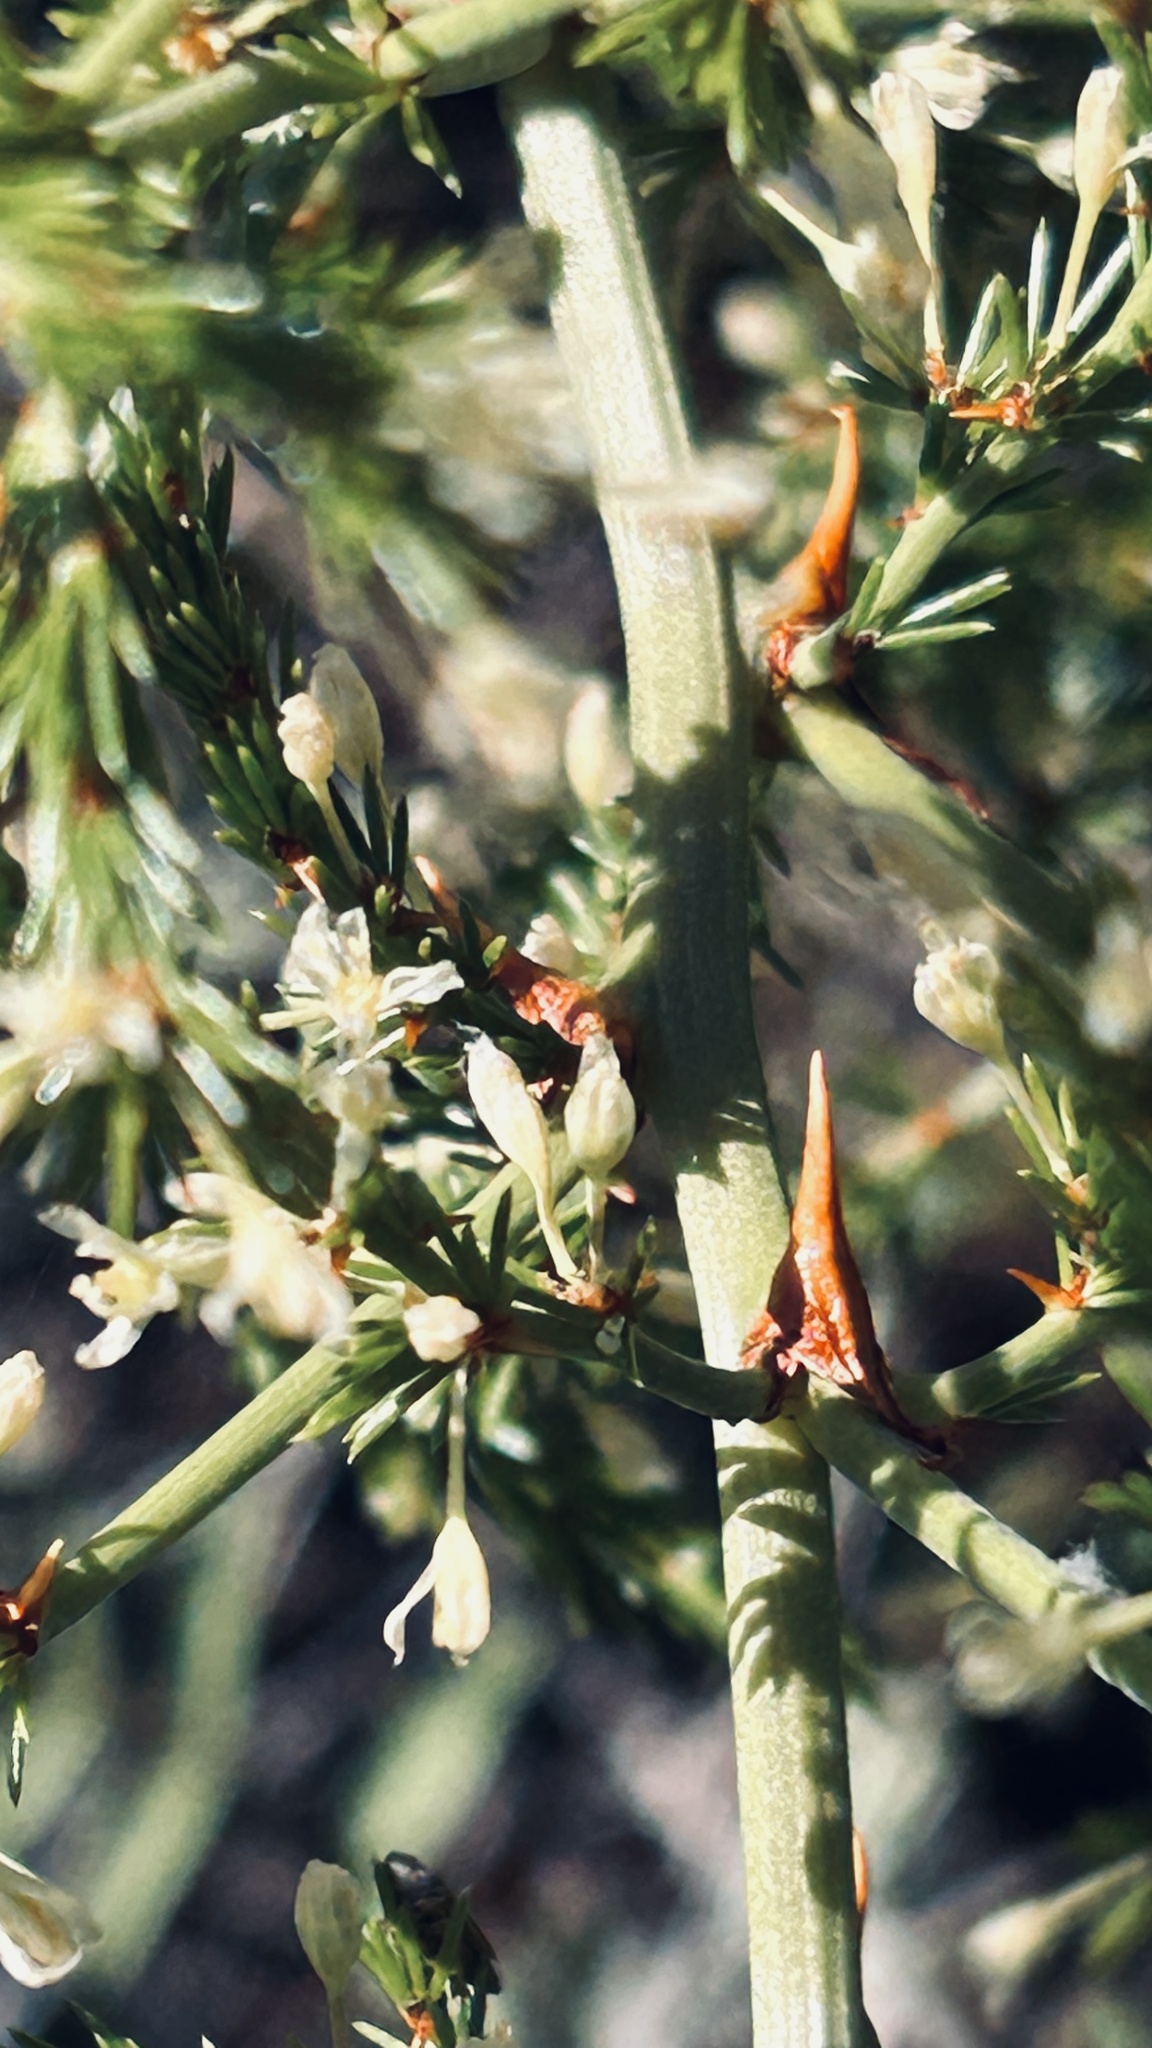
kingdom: Plantae
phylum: Tracheophyta
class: Liliopsida
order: Asparagales
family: Asparagaceae
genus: Asparagus
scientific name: Asparagus africanus
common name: Asparagus-fern
